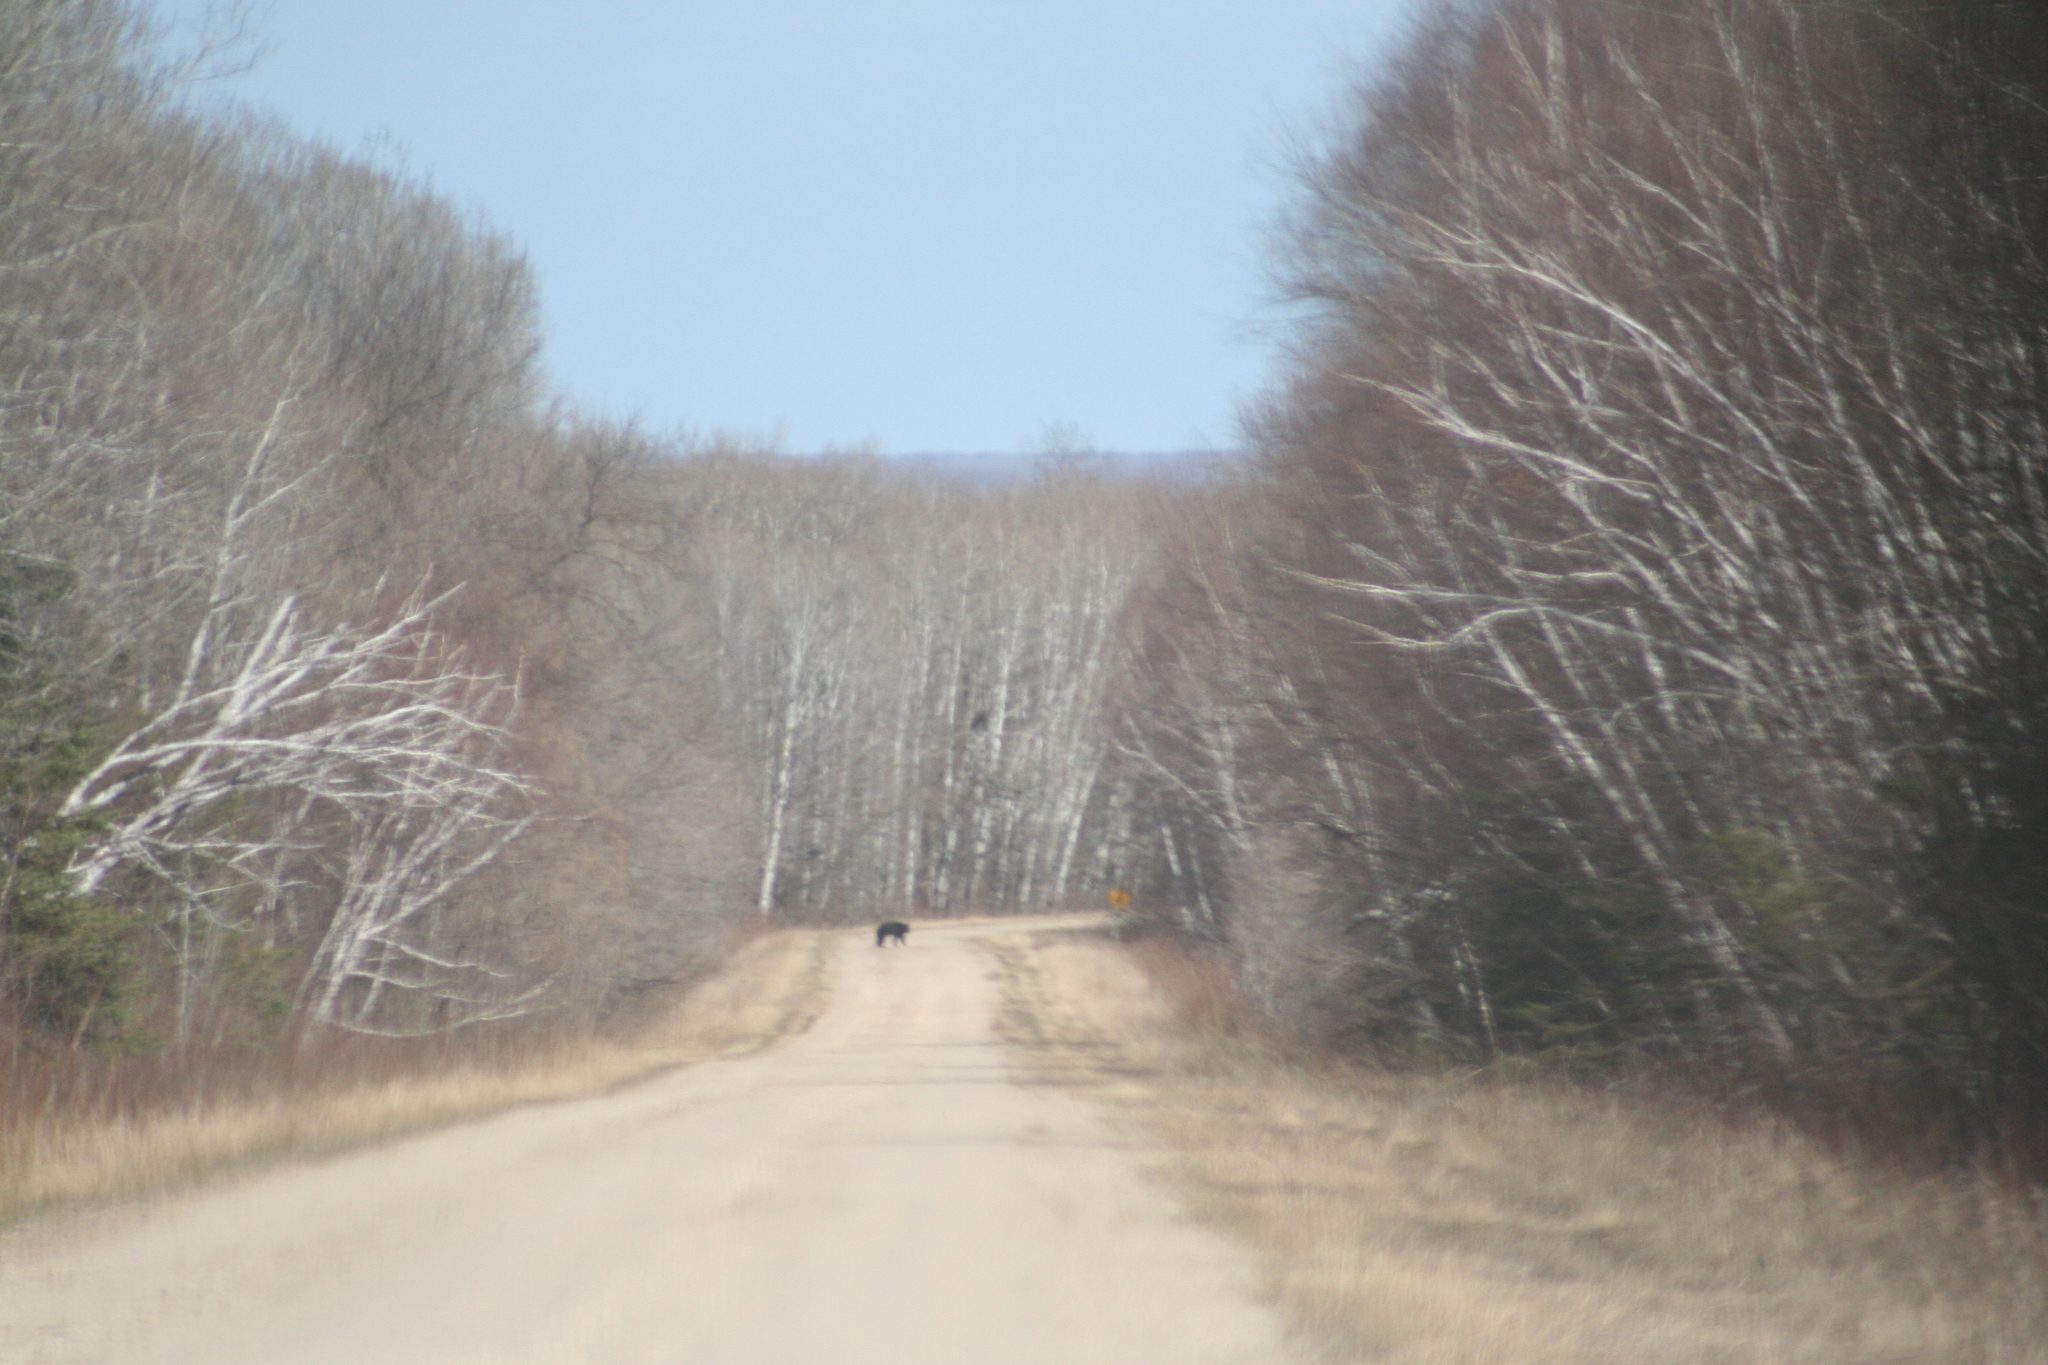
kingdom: Animalia
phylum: Chordata
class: Mammalia
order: Carnivora
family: Ursidae
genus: Ursus
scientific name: Ursus americanus
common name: American black bear
